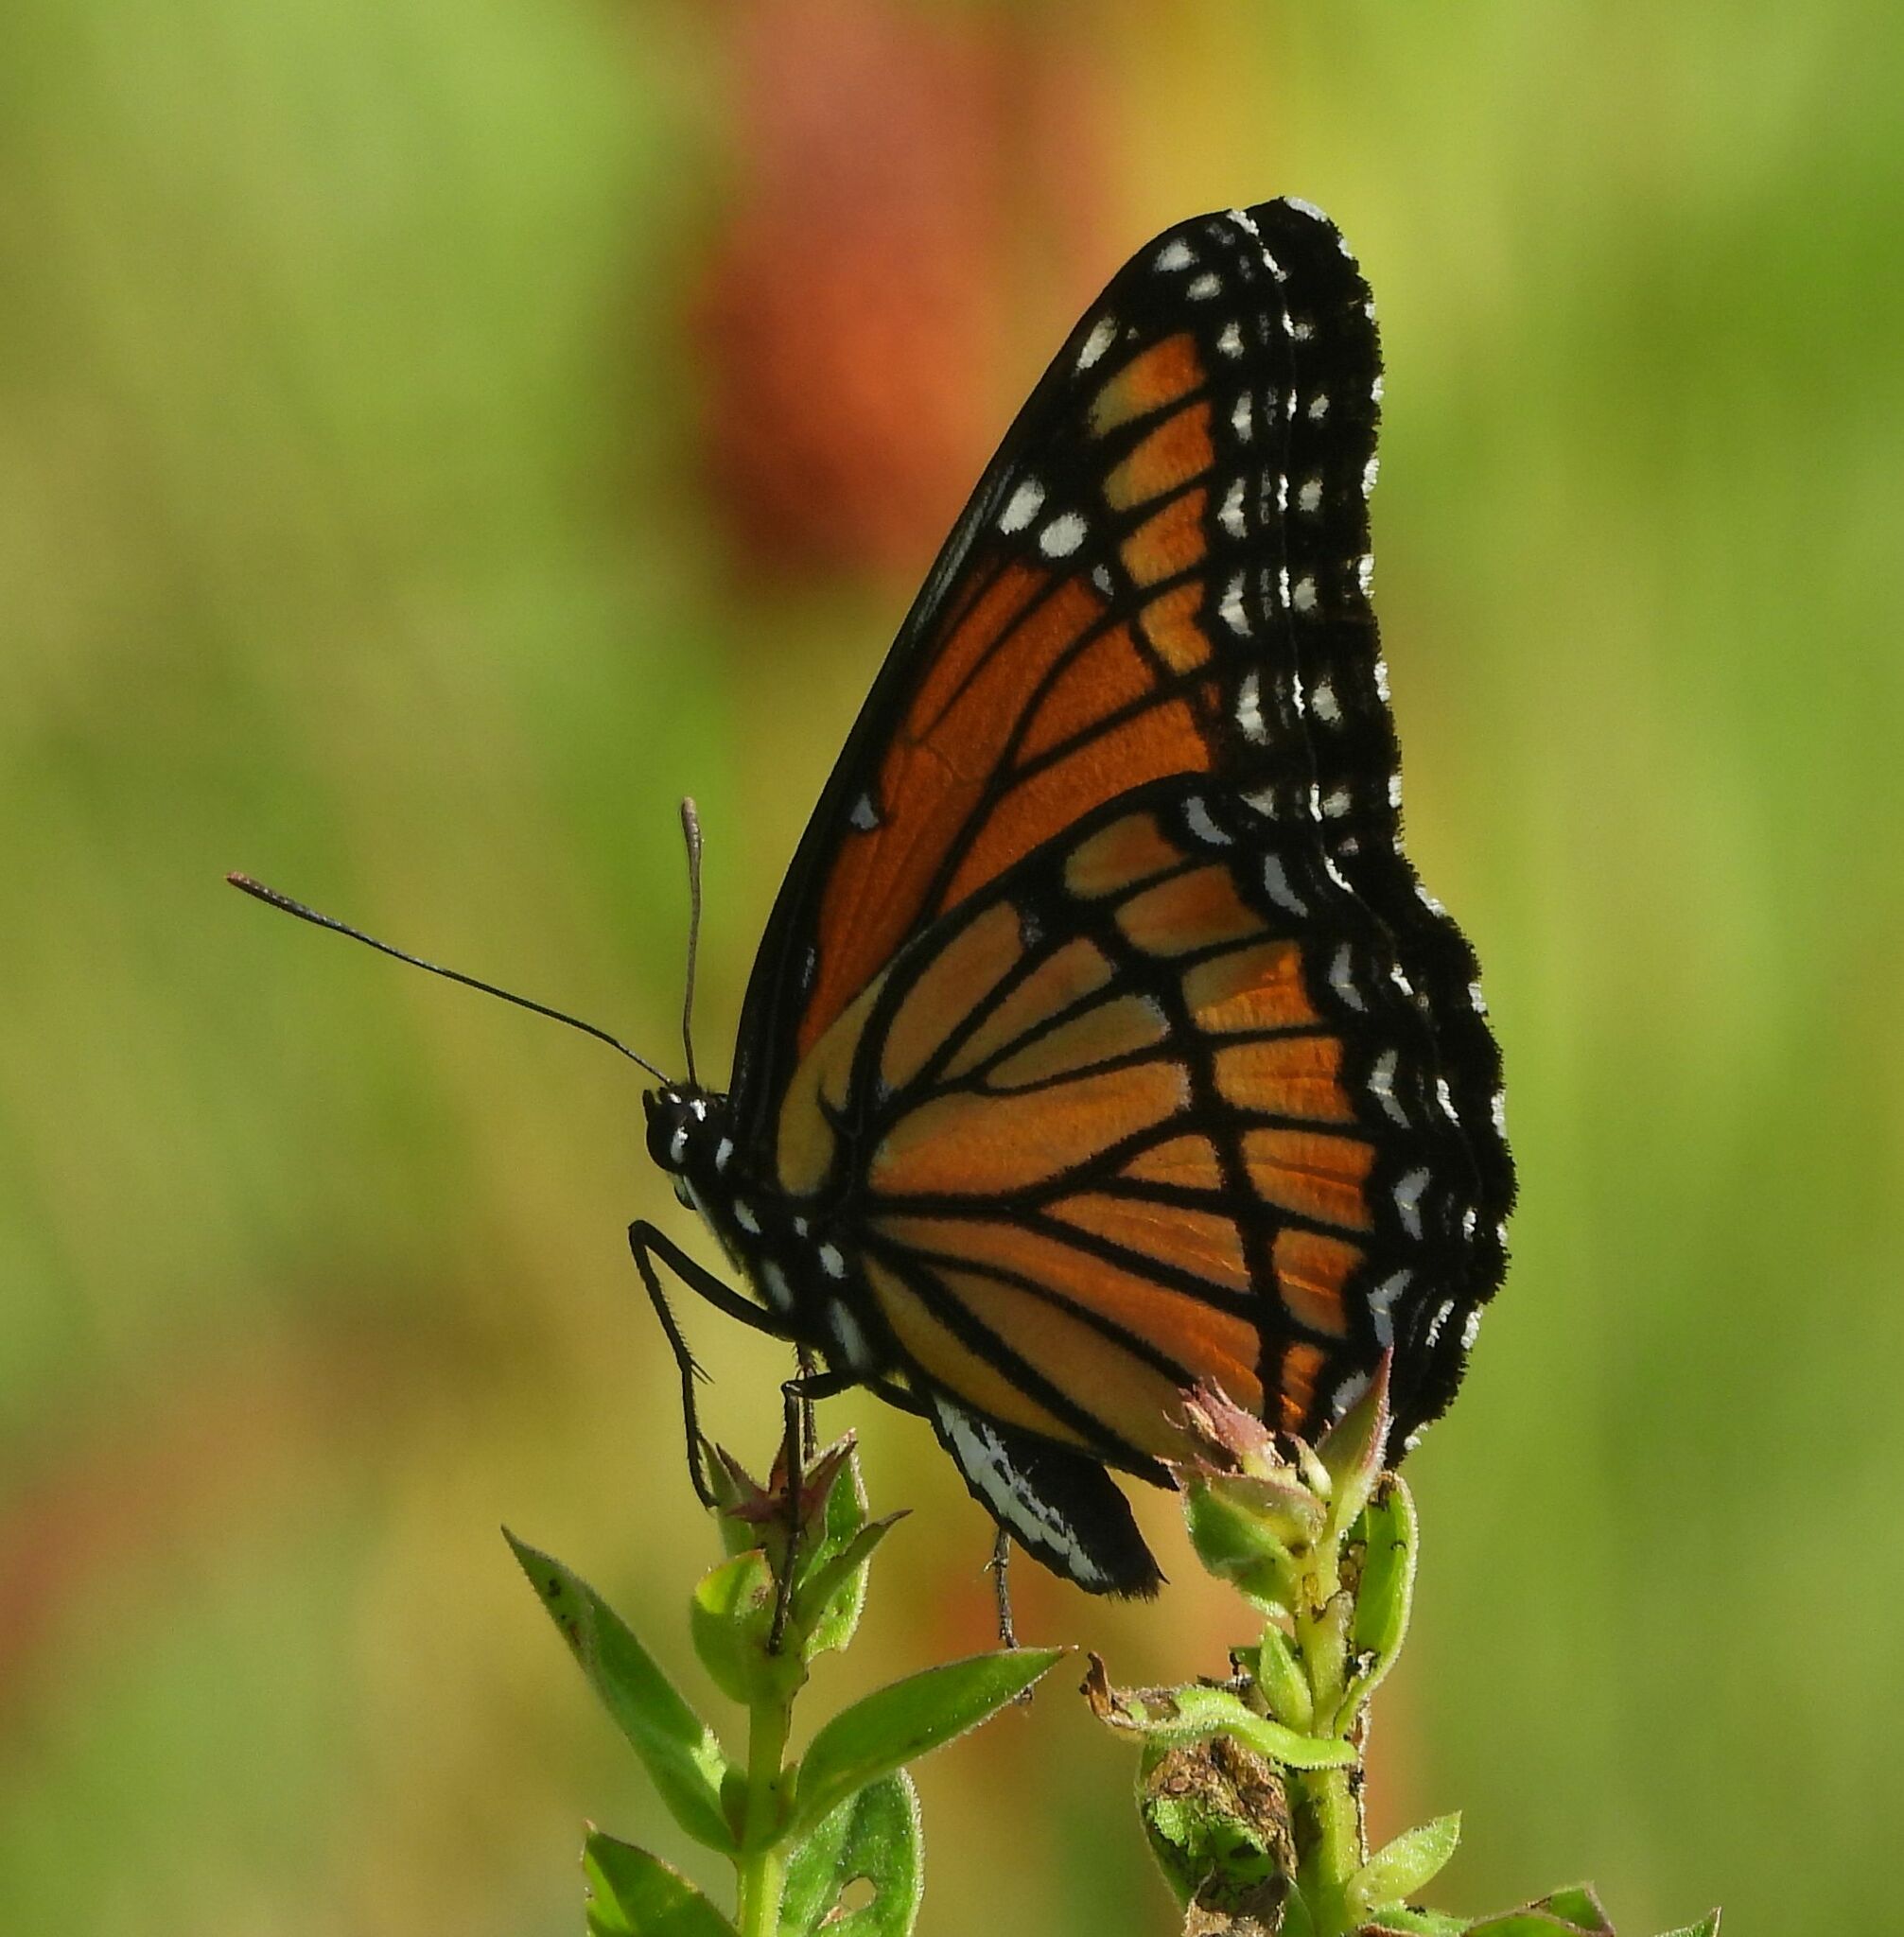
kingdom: Animalia
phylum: Arthropoda
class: Insecta
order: Lepidoptera
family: Nymphalidae
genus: Limenitis
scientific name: Limenitis archippus
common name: Viceroy
